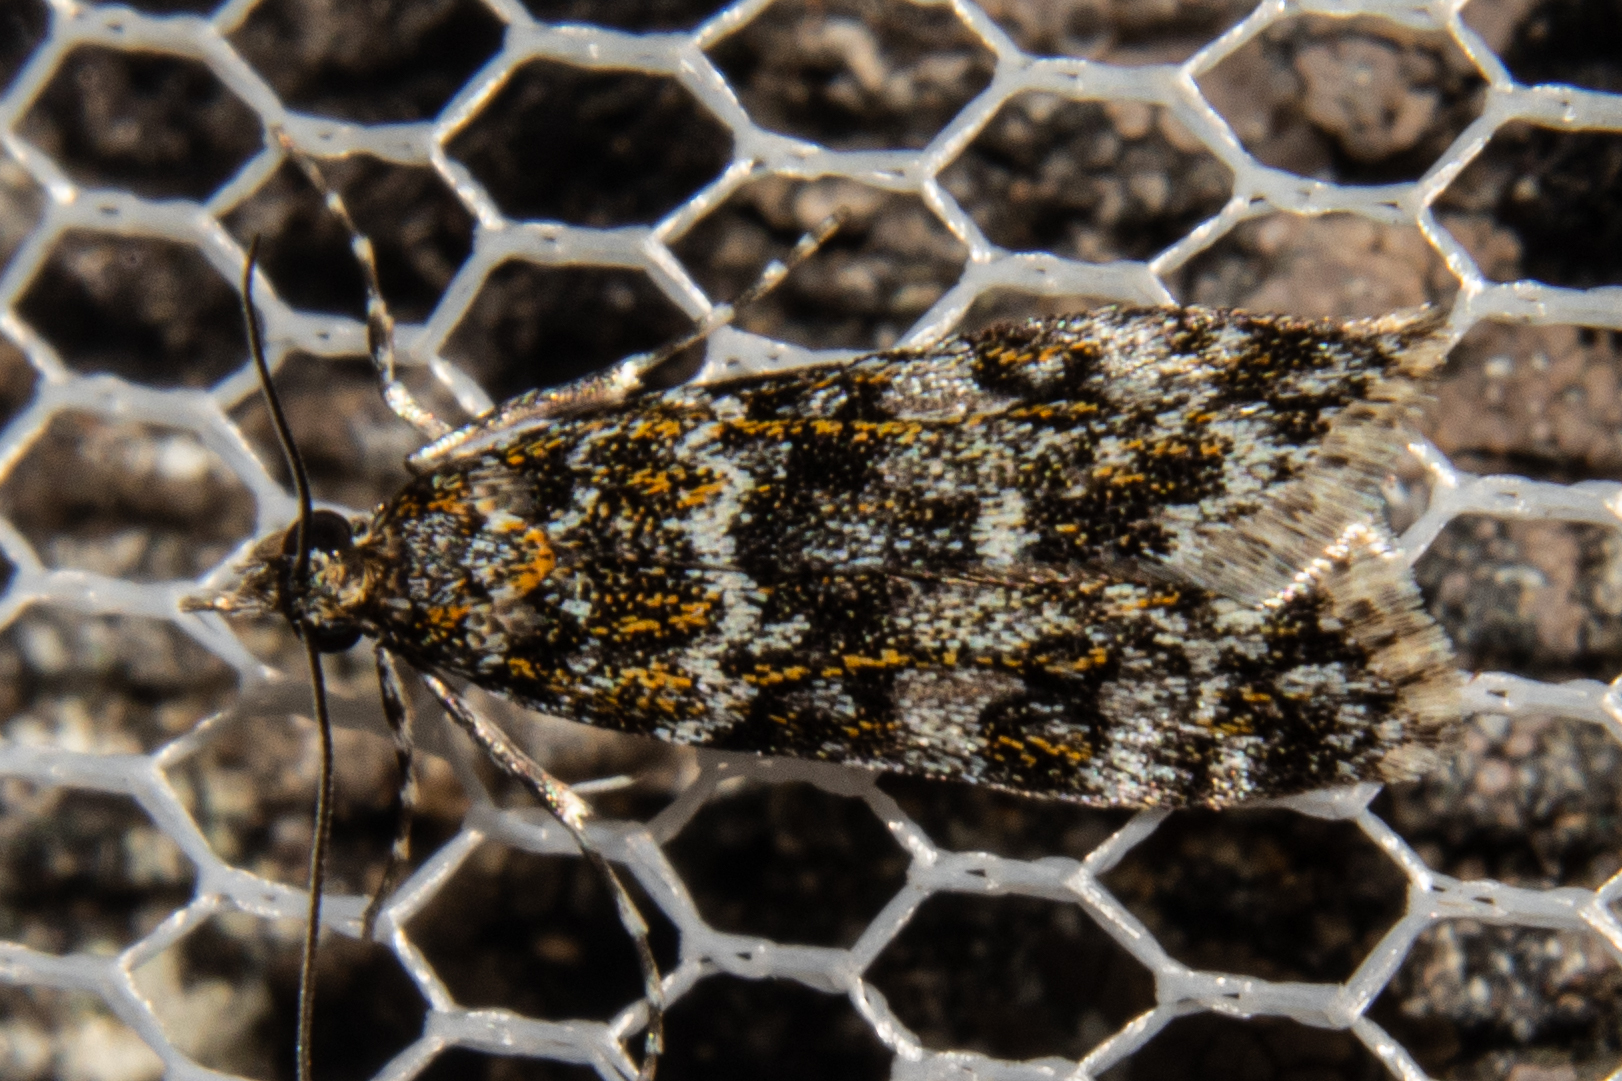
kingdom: Animalia
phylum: Arthropoda
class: Insecta
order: Lepidoptera
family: Crambidae
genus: Eudonia
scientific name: Eudonia
